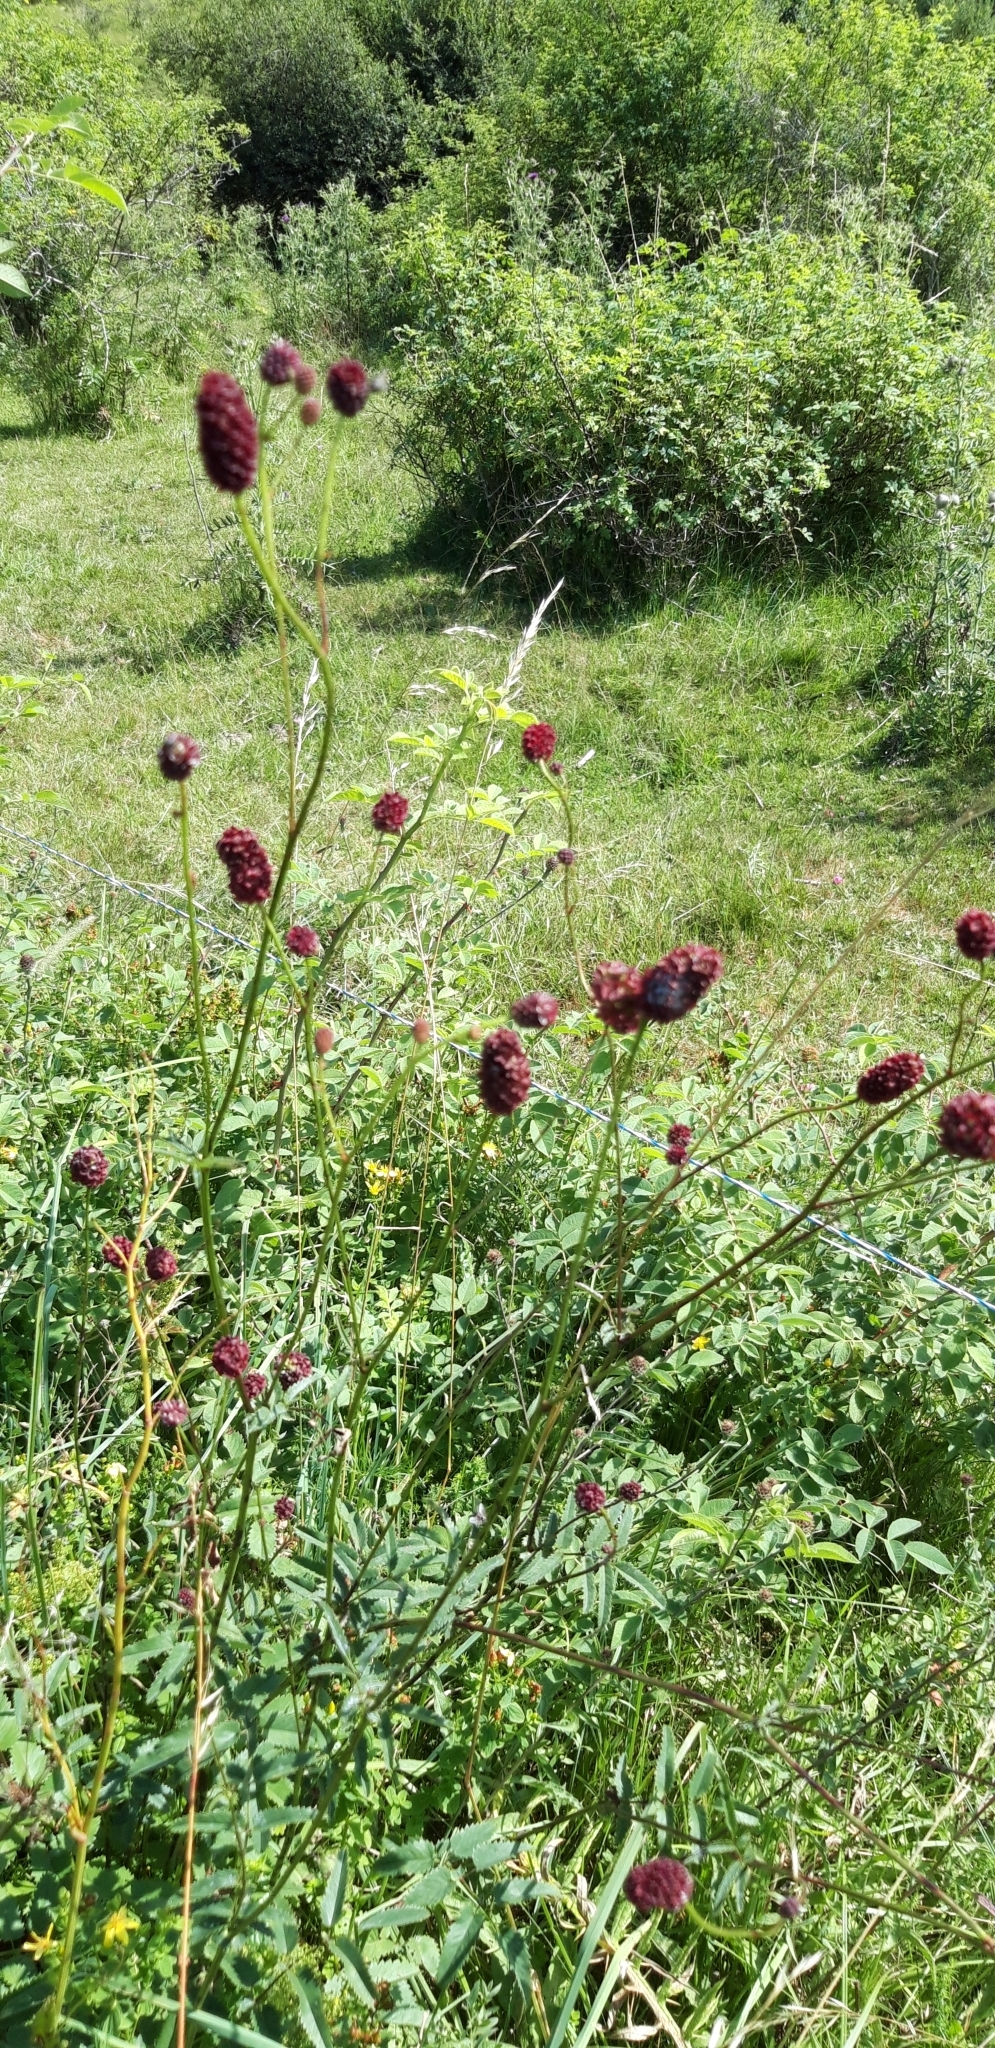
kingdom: Plantae
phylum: Tracheophyta
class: Magnoliopsida
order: Rosales
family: Rosaceae
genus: Sanguisorba
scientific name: Sanguisorba officinalis
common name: Great burnet
